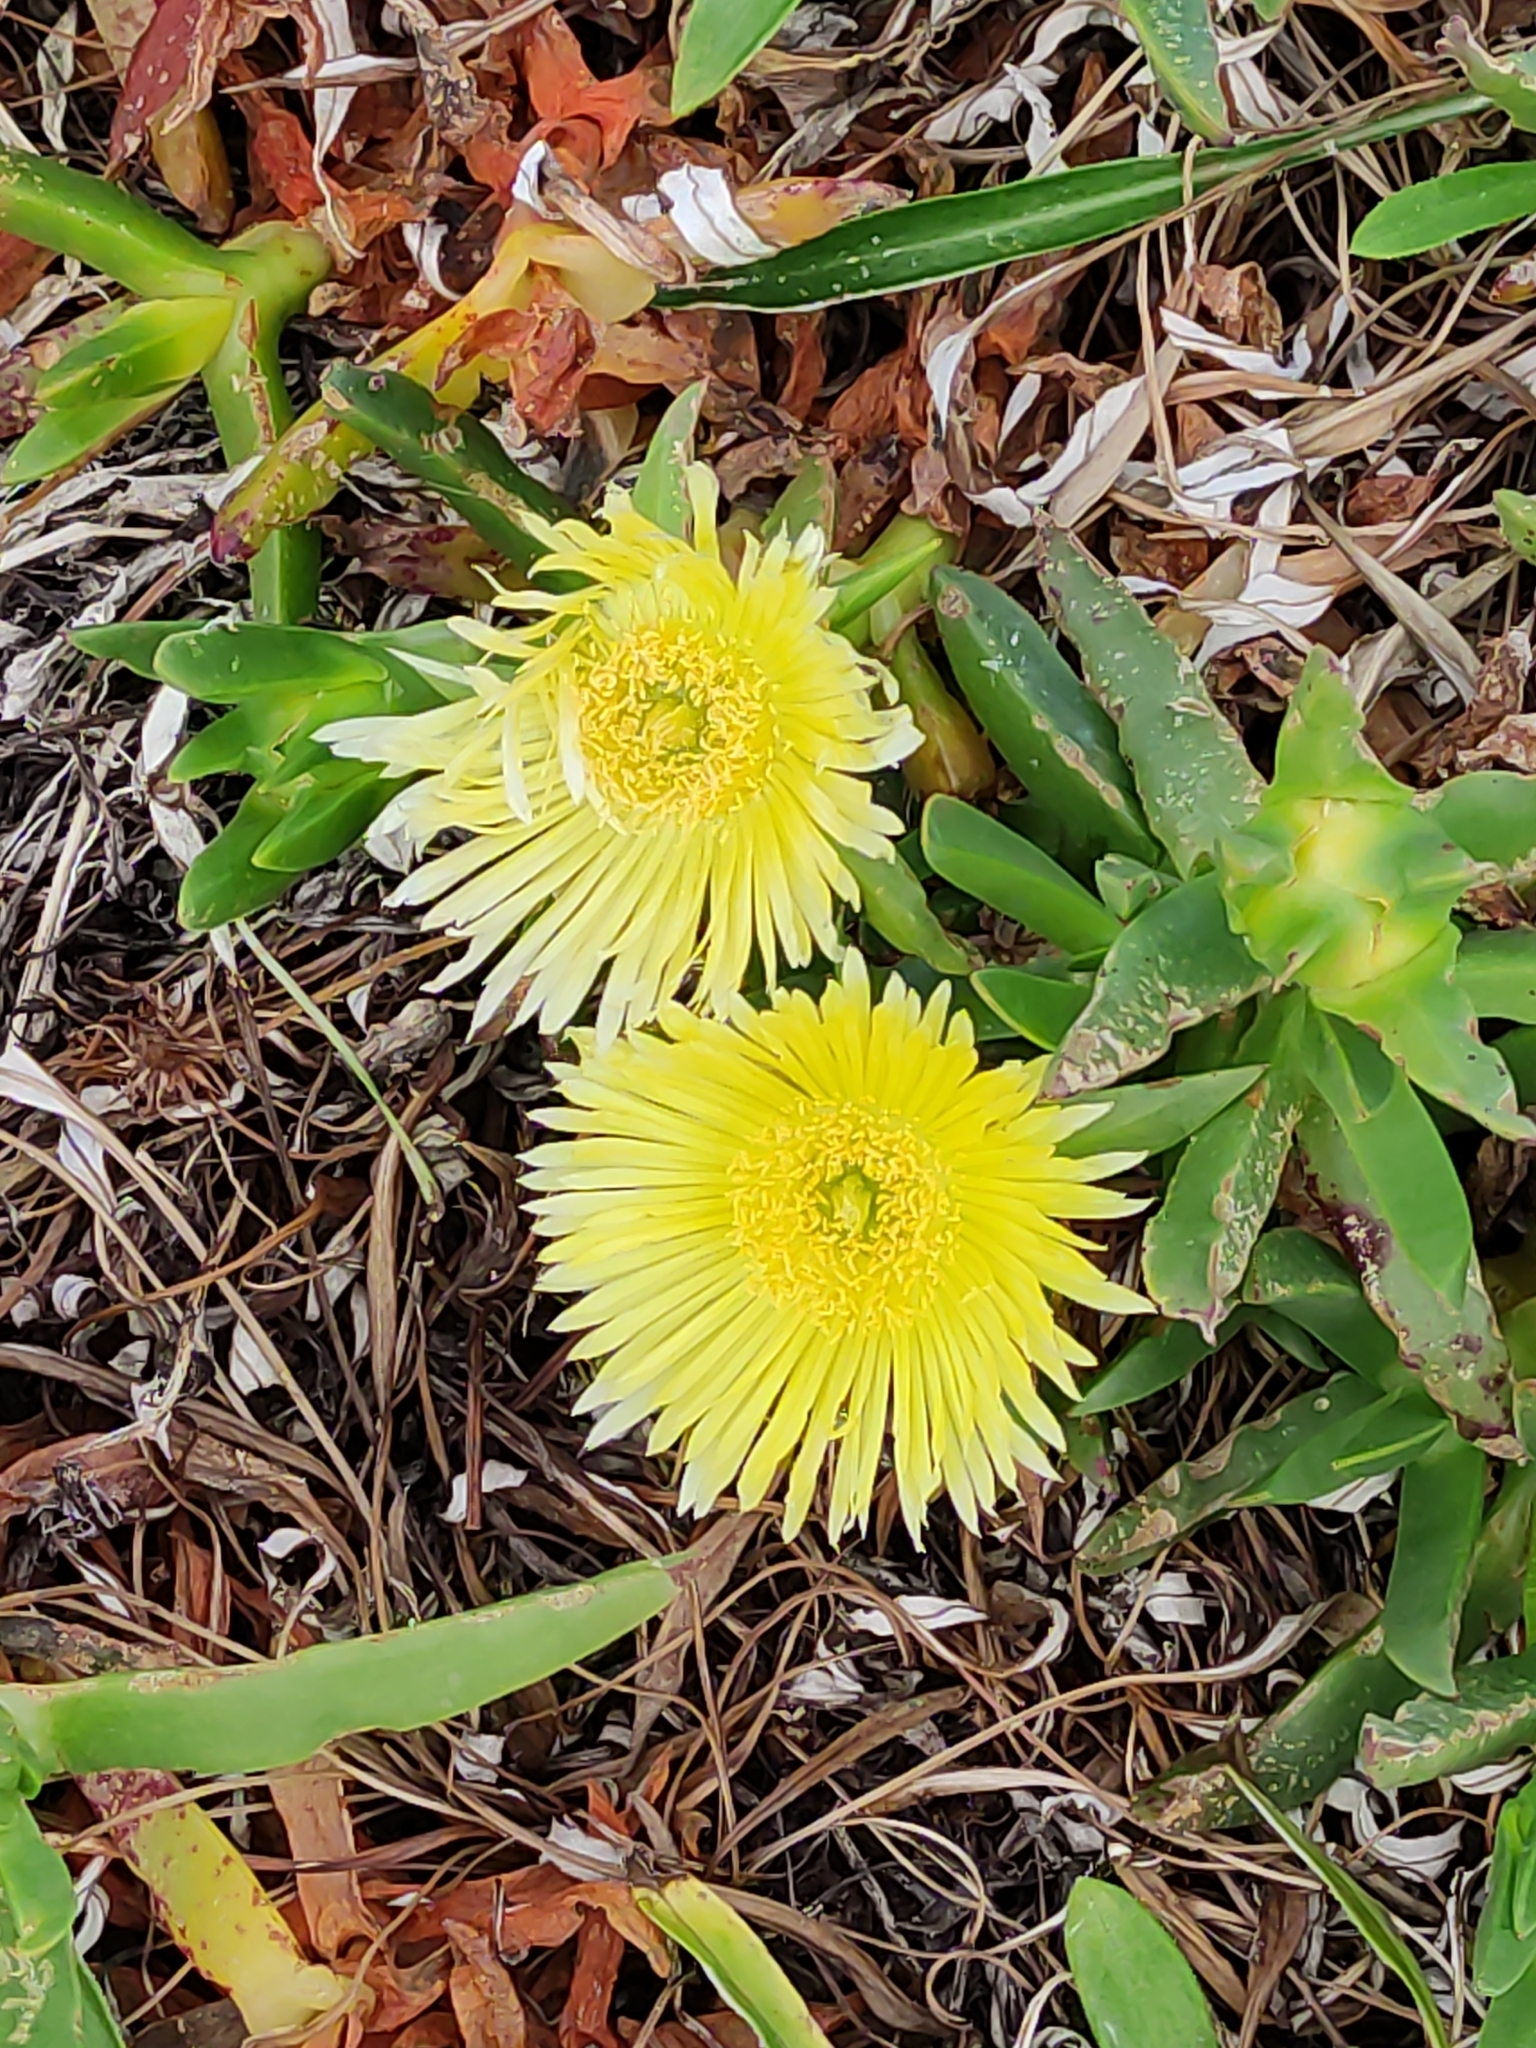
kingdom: Plantae
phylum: Tracheophyta
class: Magnoliopsida
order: Caryophyllales
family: Aizoaceae
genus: Carpobrotus
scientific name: Carpobrotus edulis
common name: Hottentot-fig
